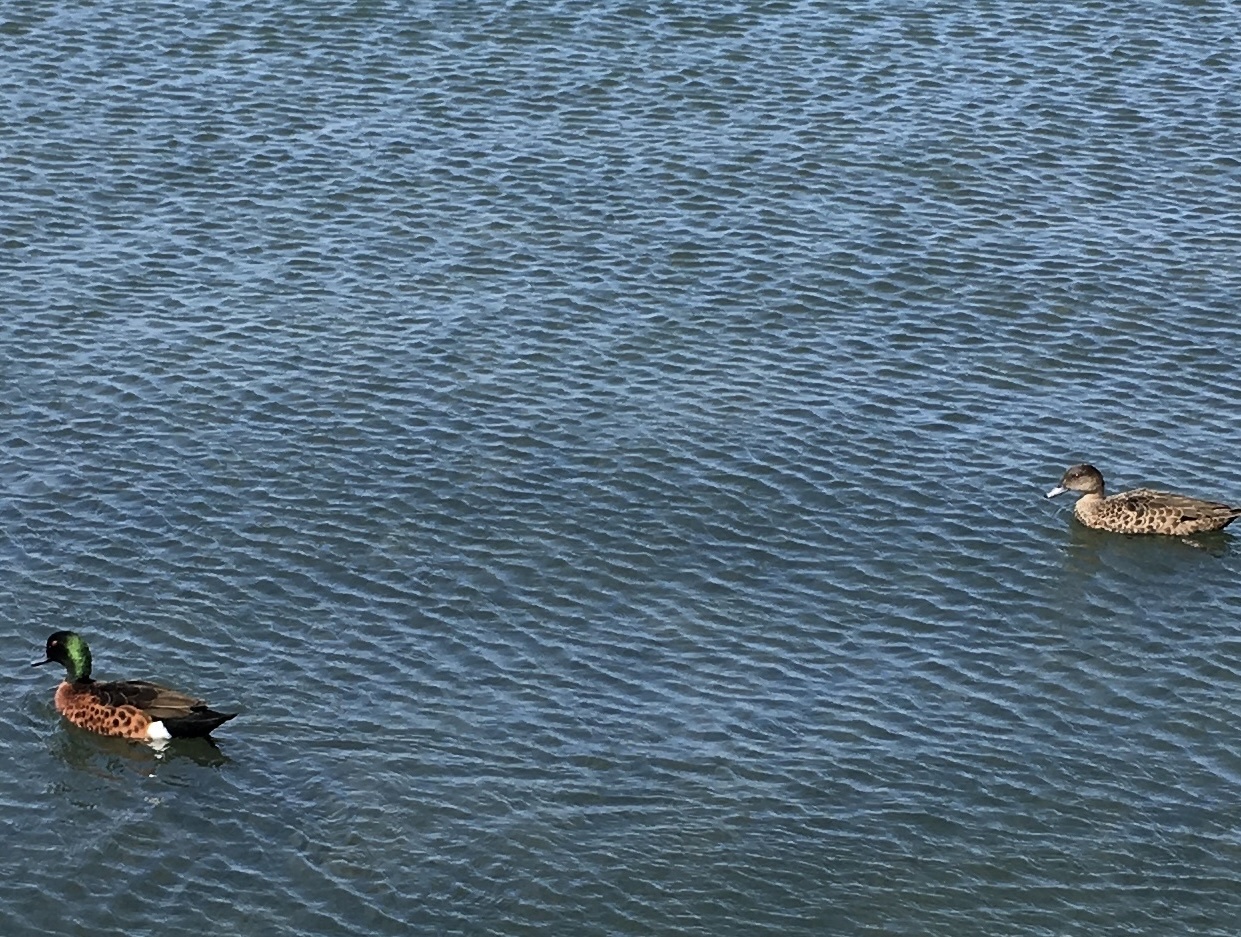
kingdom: Animalia
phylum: Chordata
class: Aves
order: Anseriformes
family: Anatidae
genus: Anas
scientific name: Anas castanea
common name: Chestnut teal
